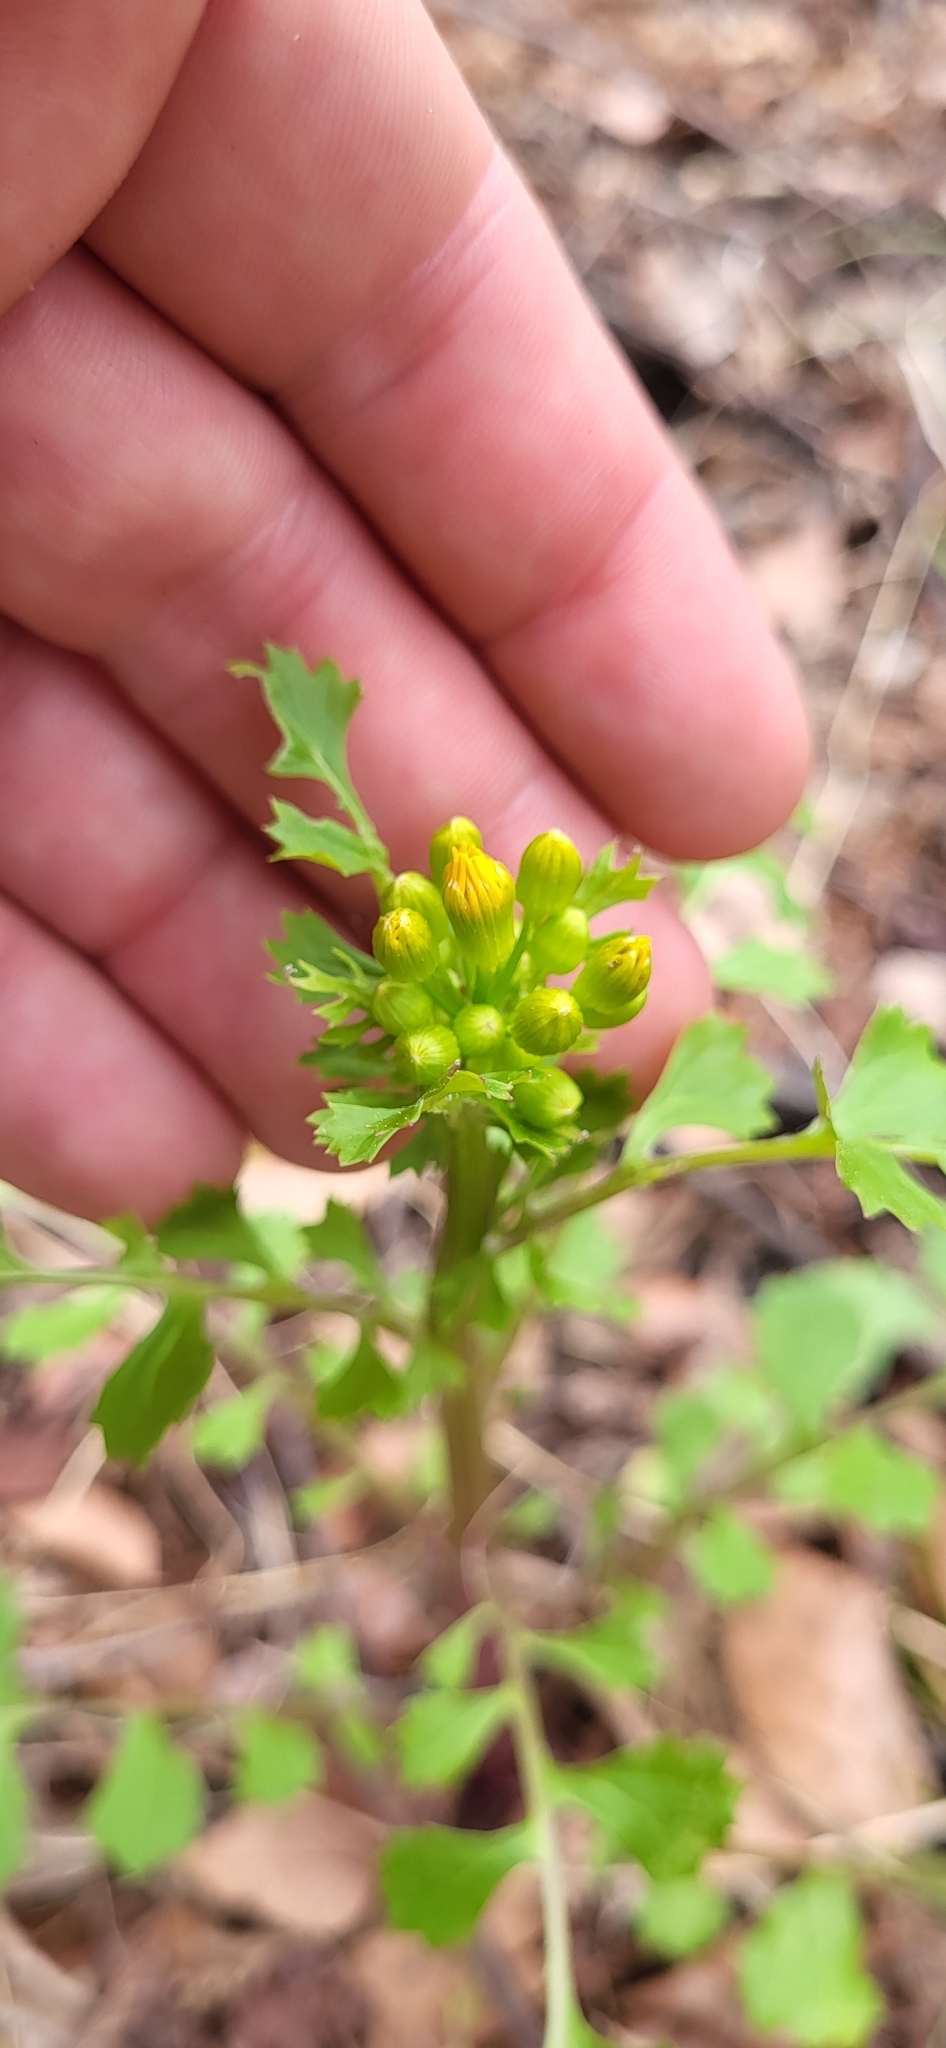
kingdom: Plantae
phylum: Tracheophyta
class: Magnoliopsida
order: Asterales
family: Asteraceae
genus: Packera
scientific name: Packera glabella
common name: Butterweed
